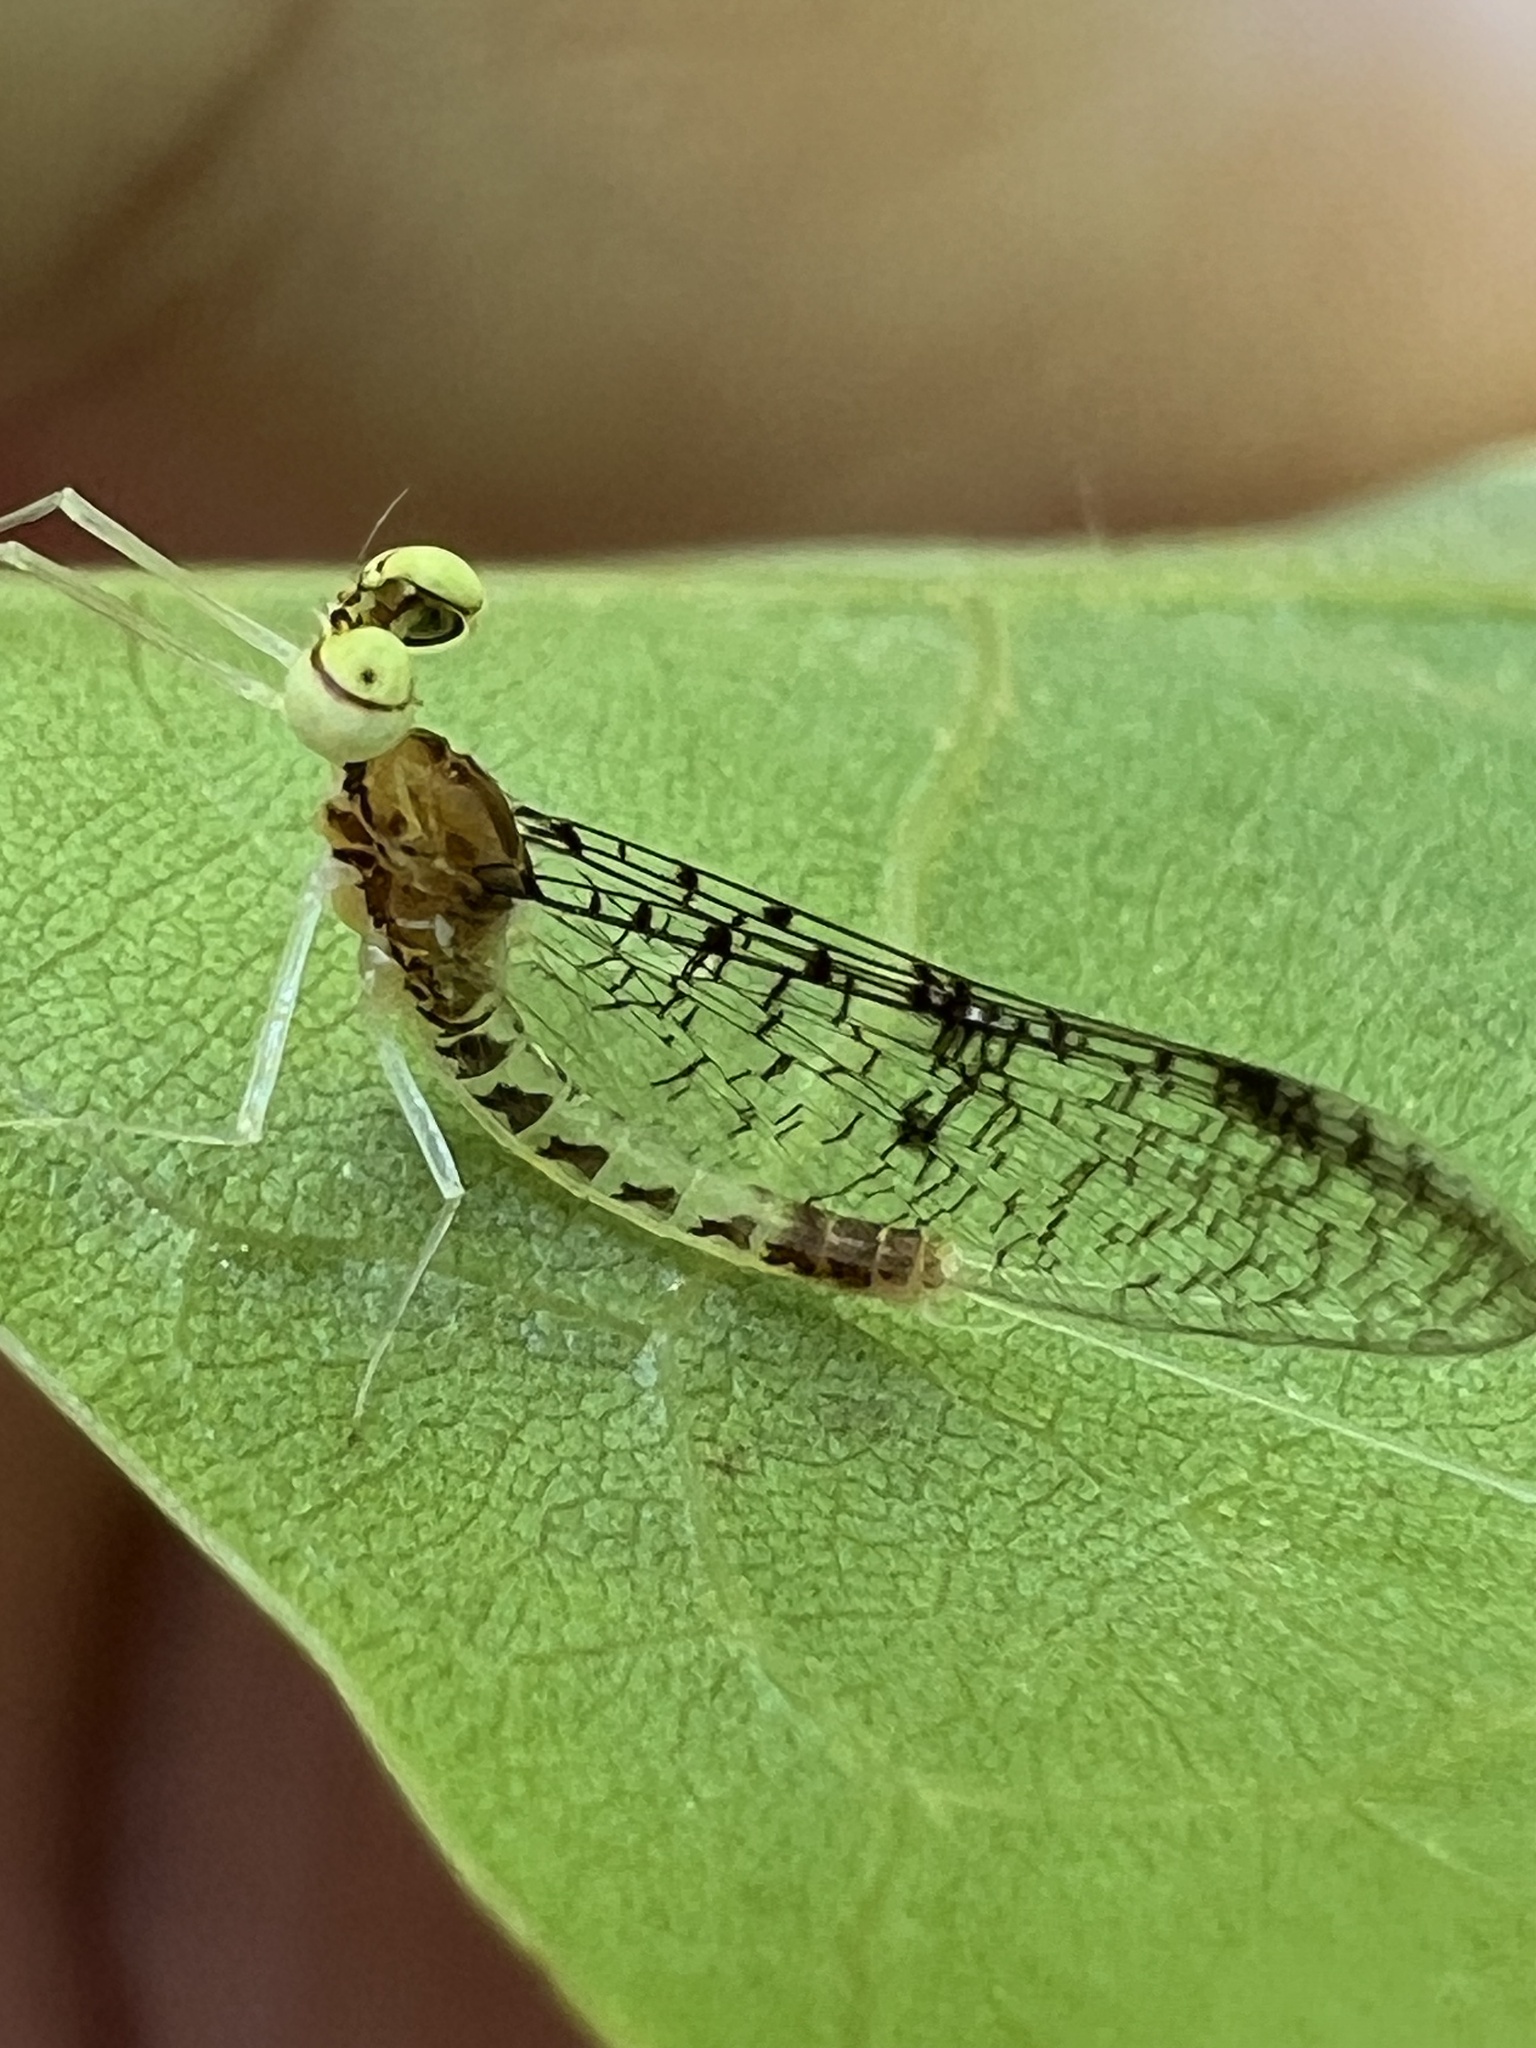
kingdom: Animalia
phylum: Arthropoda
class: Insecta
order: Ephemeroptera
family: Heptageniidae
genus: Leucrocuta
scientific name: Leucrocuta minerva
